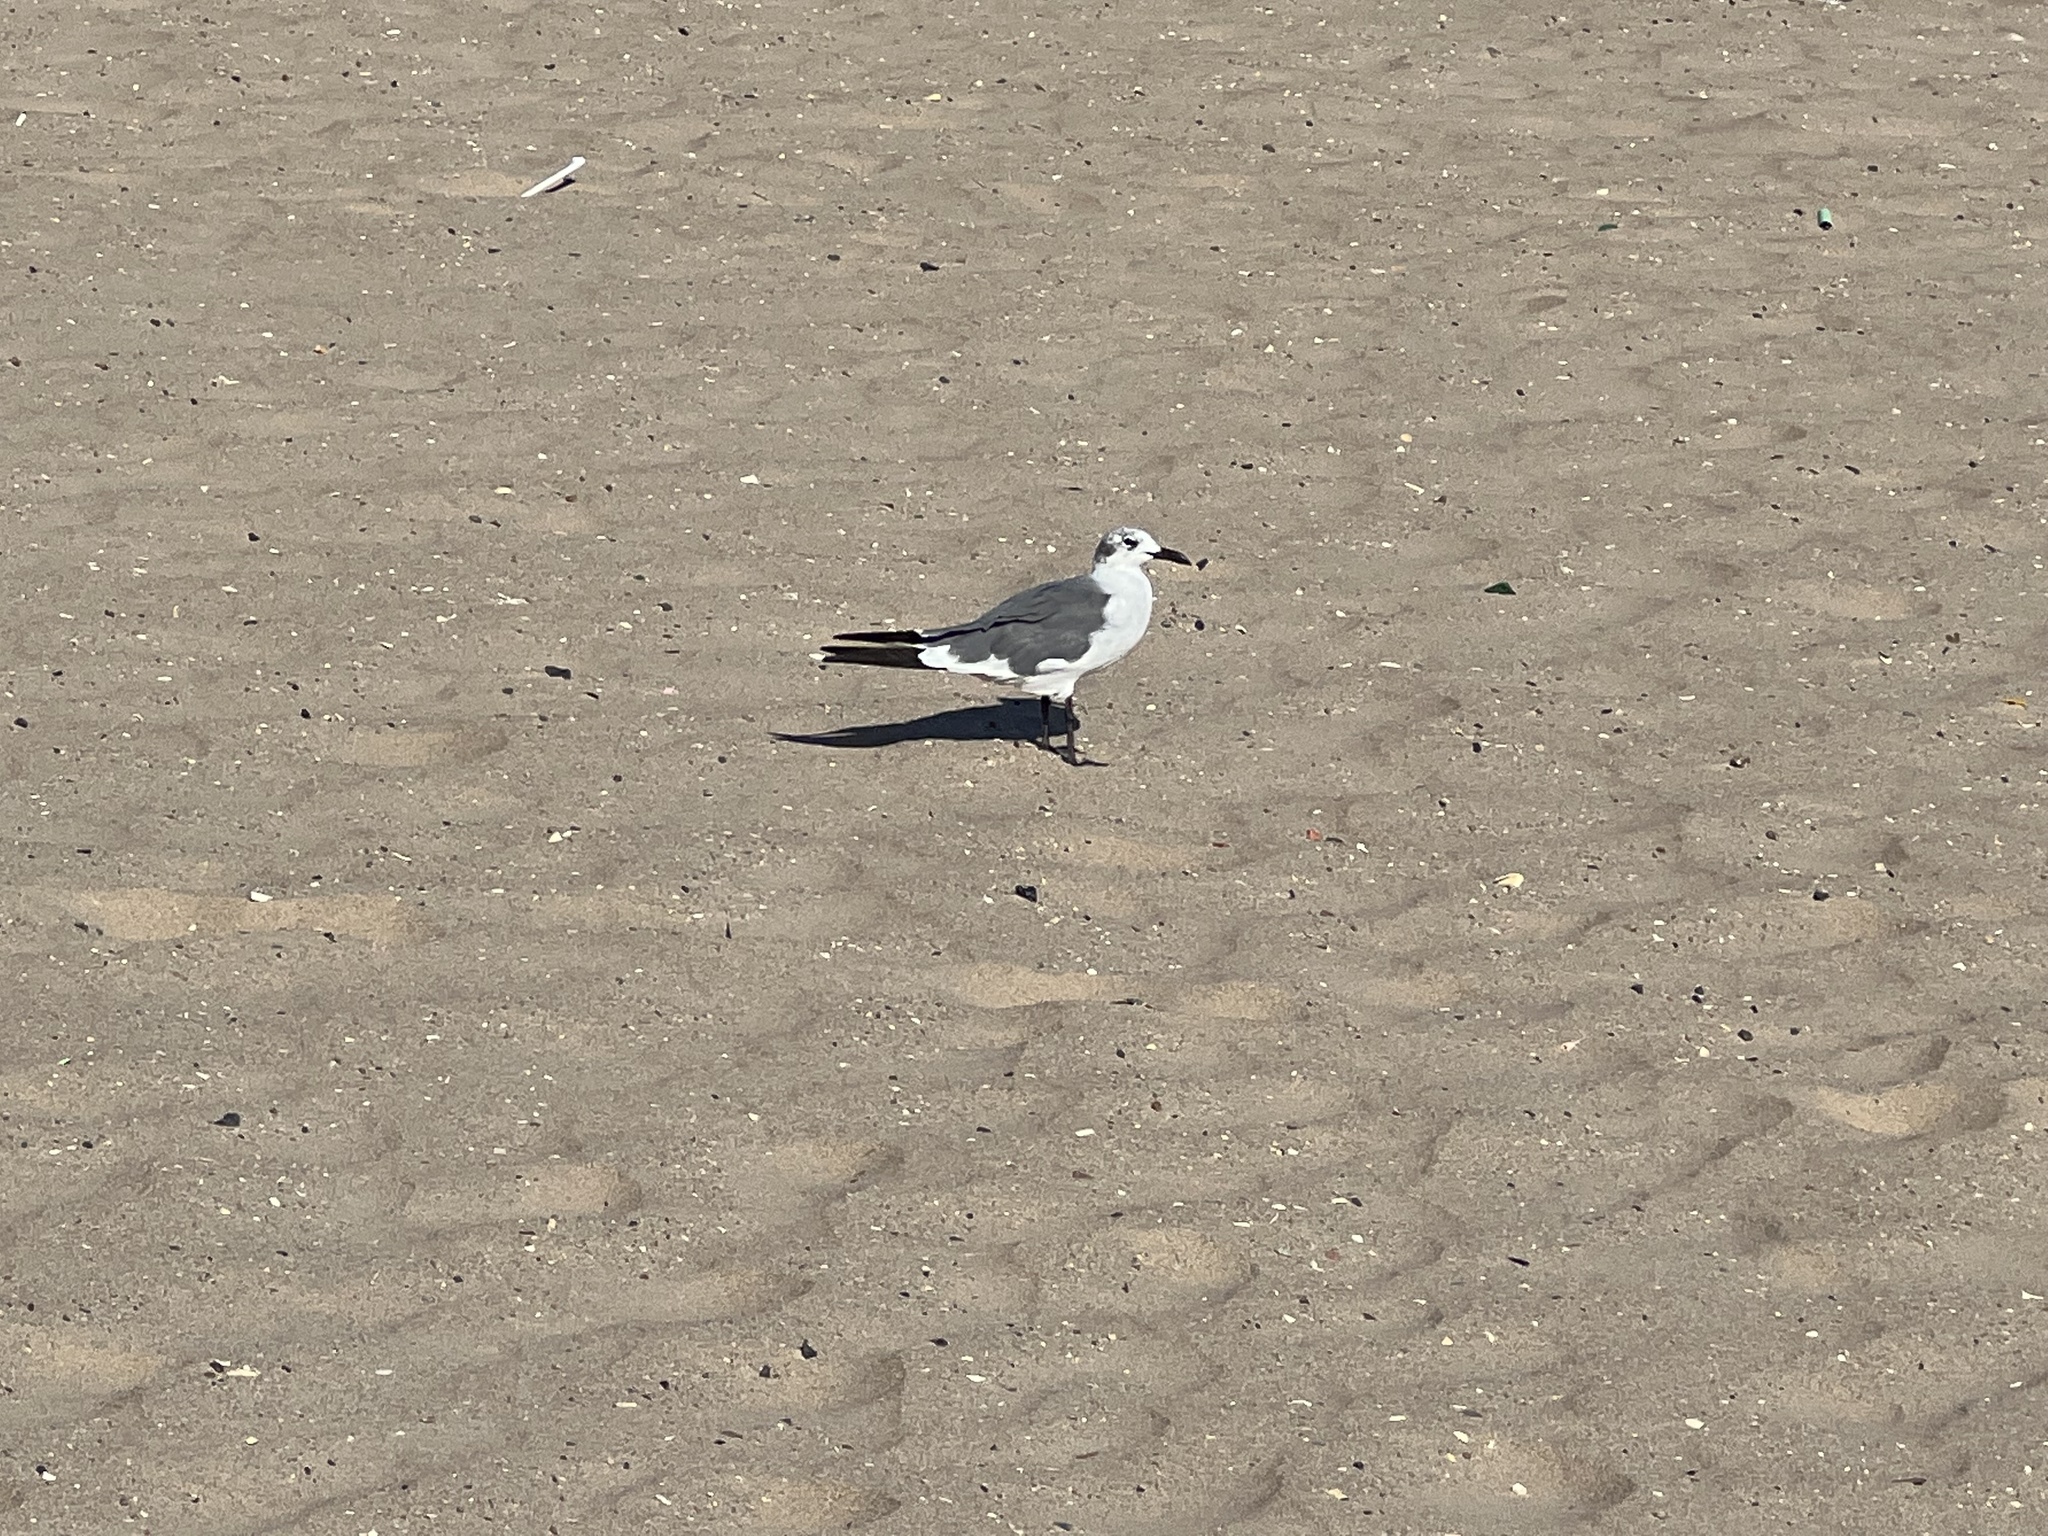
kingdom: Animalia
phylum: Chordata
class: Aves
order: Charadriiformes
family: Laridae
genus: Leucophaeus
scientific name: Leucophaeus atricilla
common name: Laughing gull
